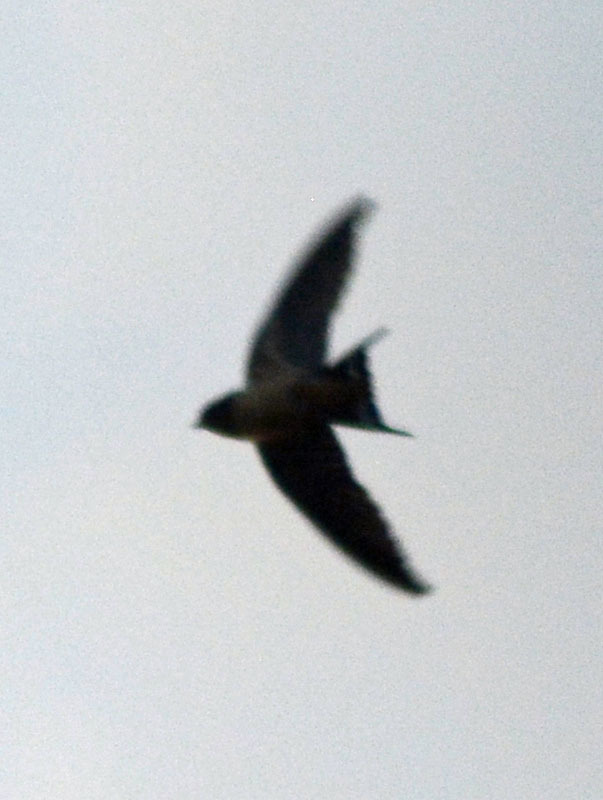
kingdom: Animalia
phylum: Chordata
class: Aves
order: Passeriformes
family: Hirundinidae
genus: Hirundo
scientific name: Hirundo rustica
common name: Barn swallow
